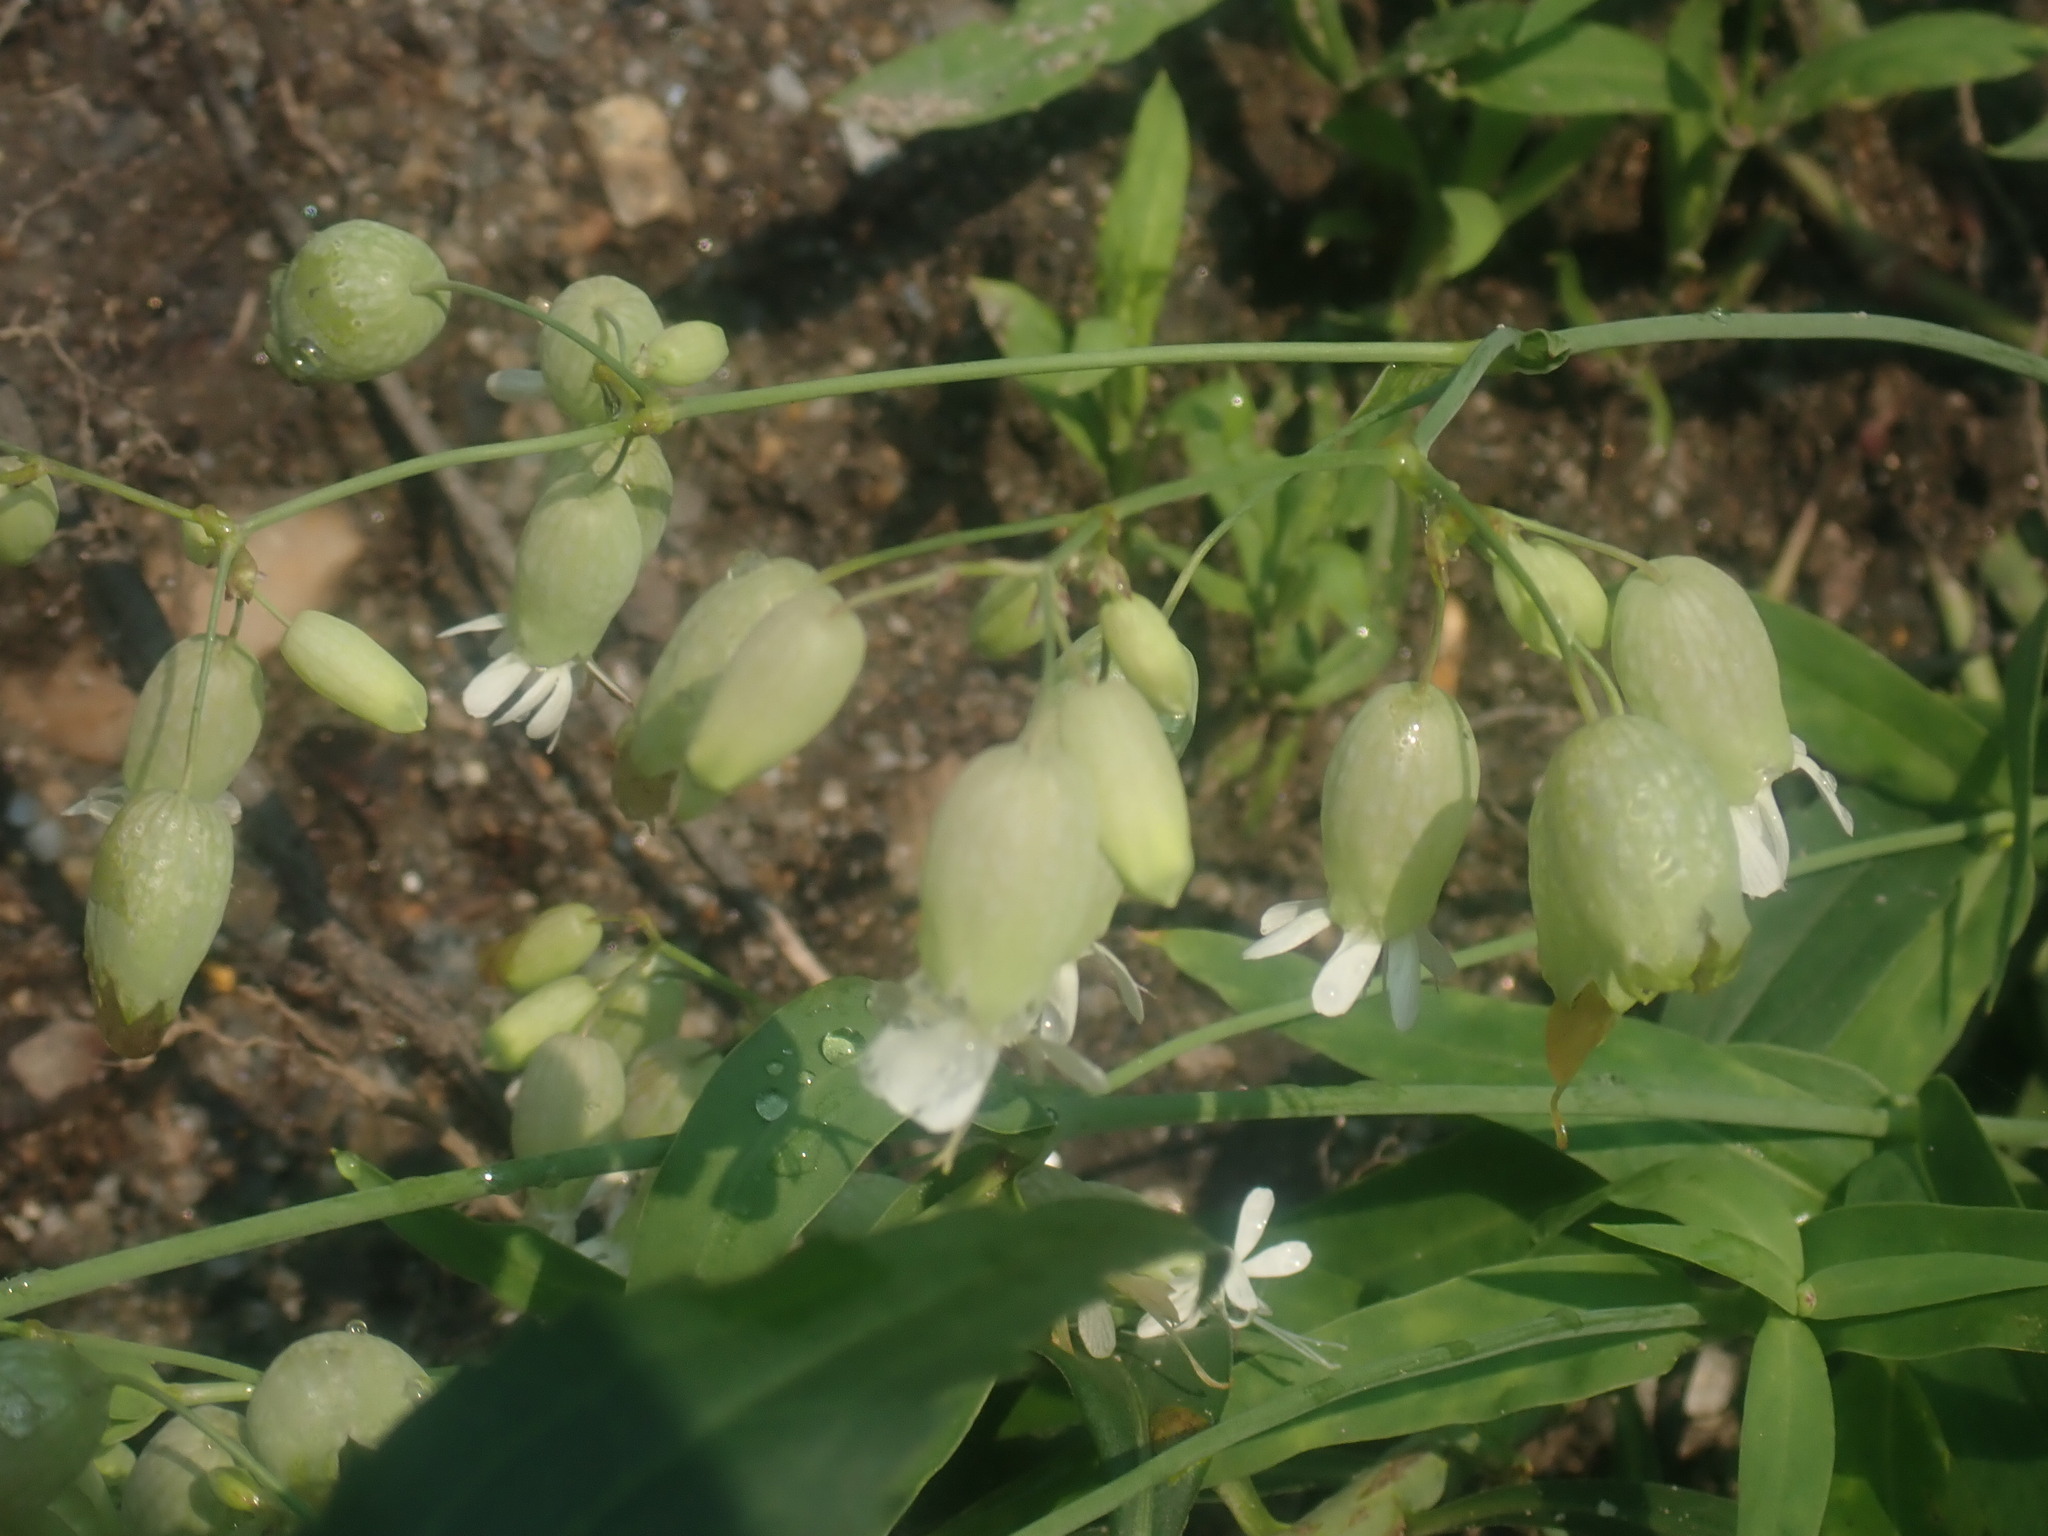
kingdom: Plantae
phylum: Tracheophyta
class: Magnoliopsida
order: Caryophyllales
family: Caryophyllaceae
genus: Silene
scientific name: Silene vulgaris
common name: Bladder campion
